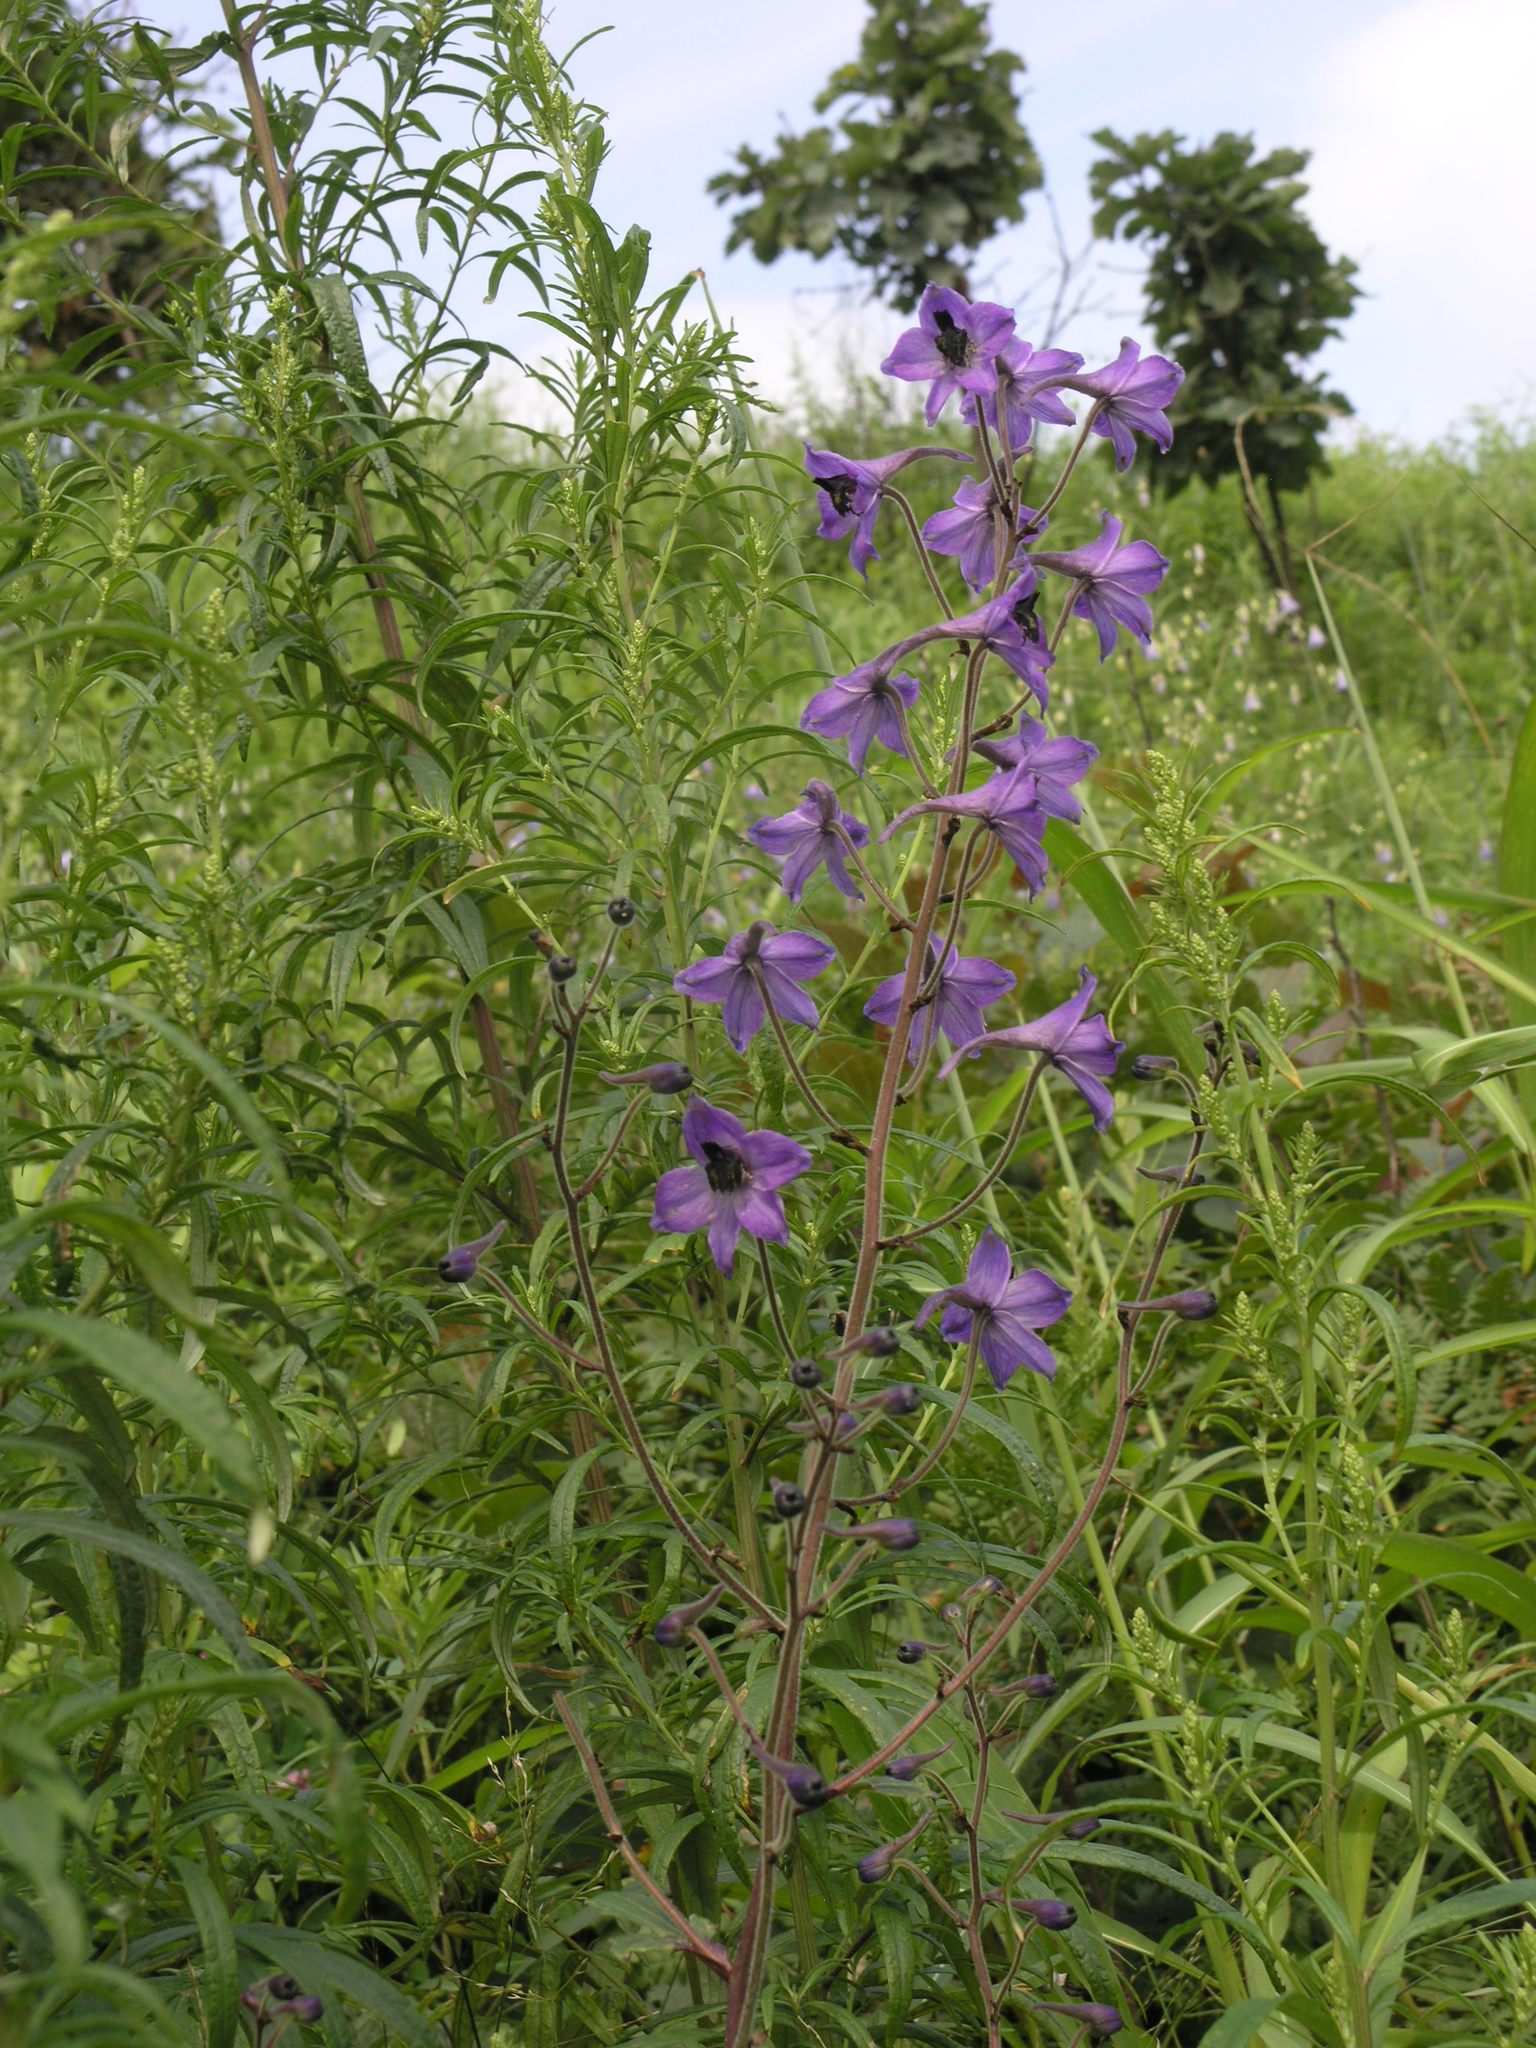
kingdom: Plantae
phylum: Tracheophyta
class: Magnoliopsida
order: Ranunculales
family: Ranunculaceae
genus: Delphinium
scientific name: Delphinium maackianum
